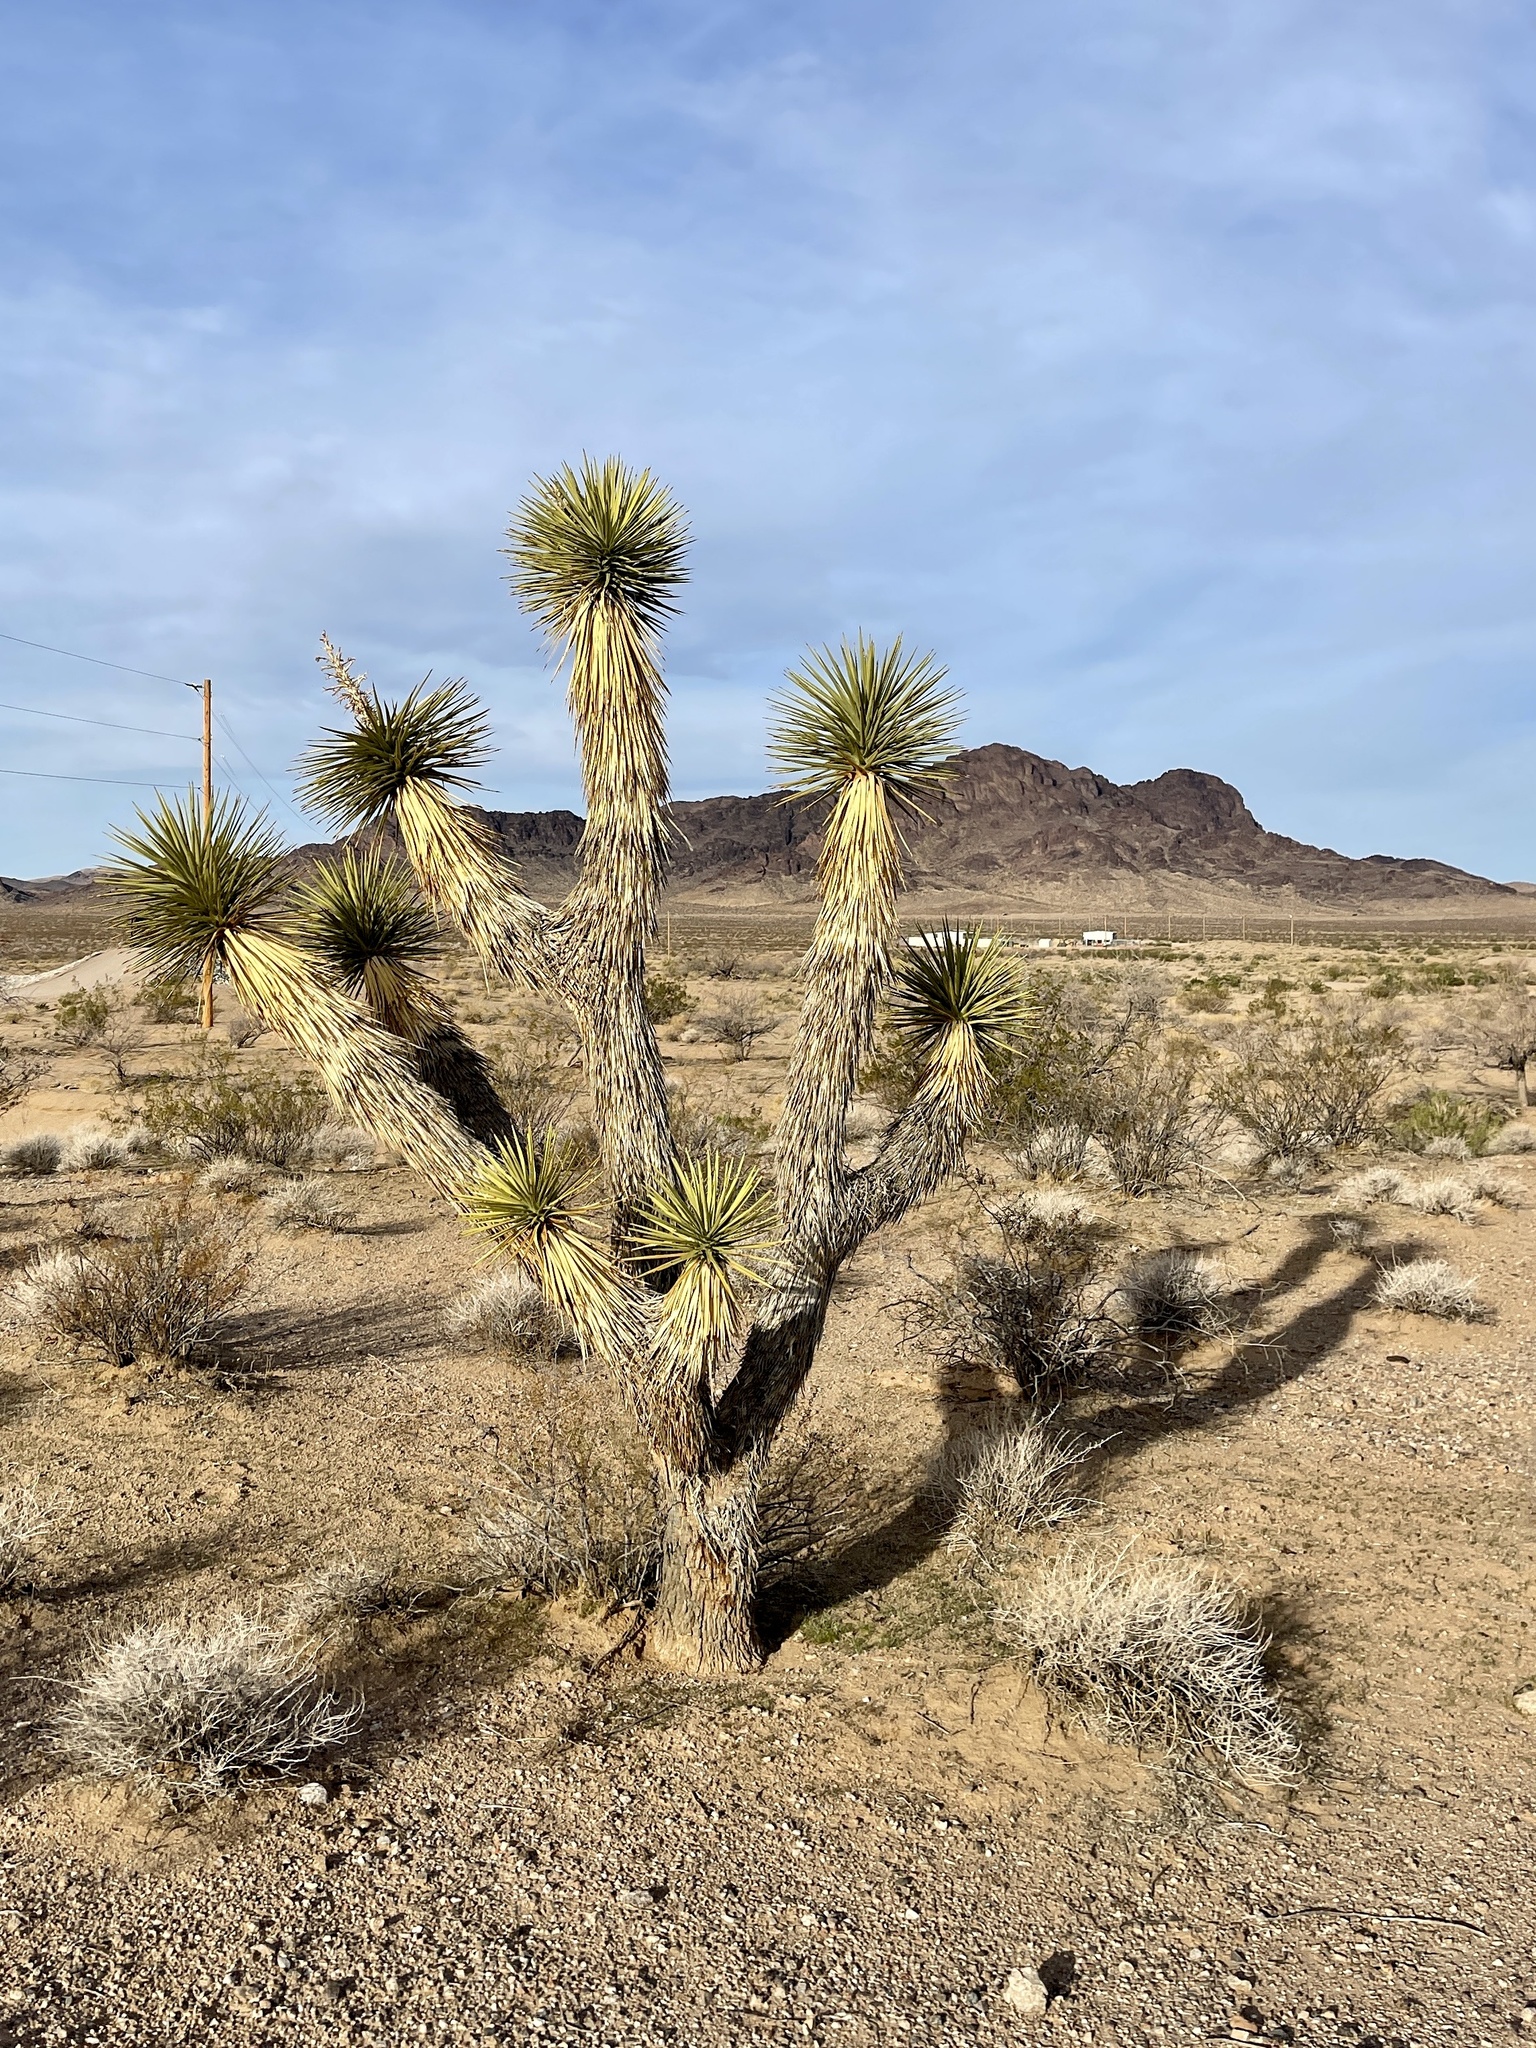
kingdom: Plantae
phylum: Tracheophyta
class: Liliopsida
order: Asparagales
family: Asparagaceae
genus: Yucca
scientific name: Yucca brevifolia
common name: Joshua tree
